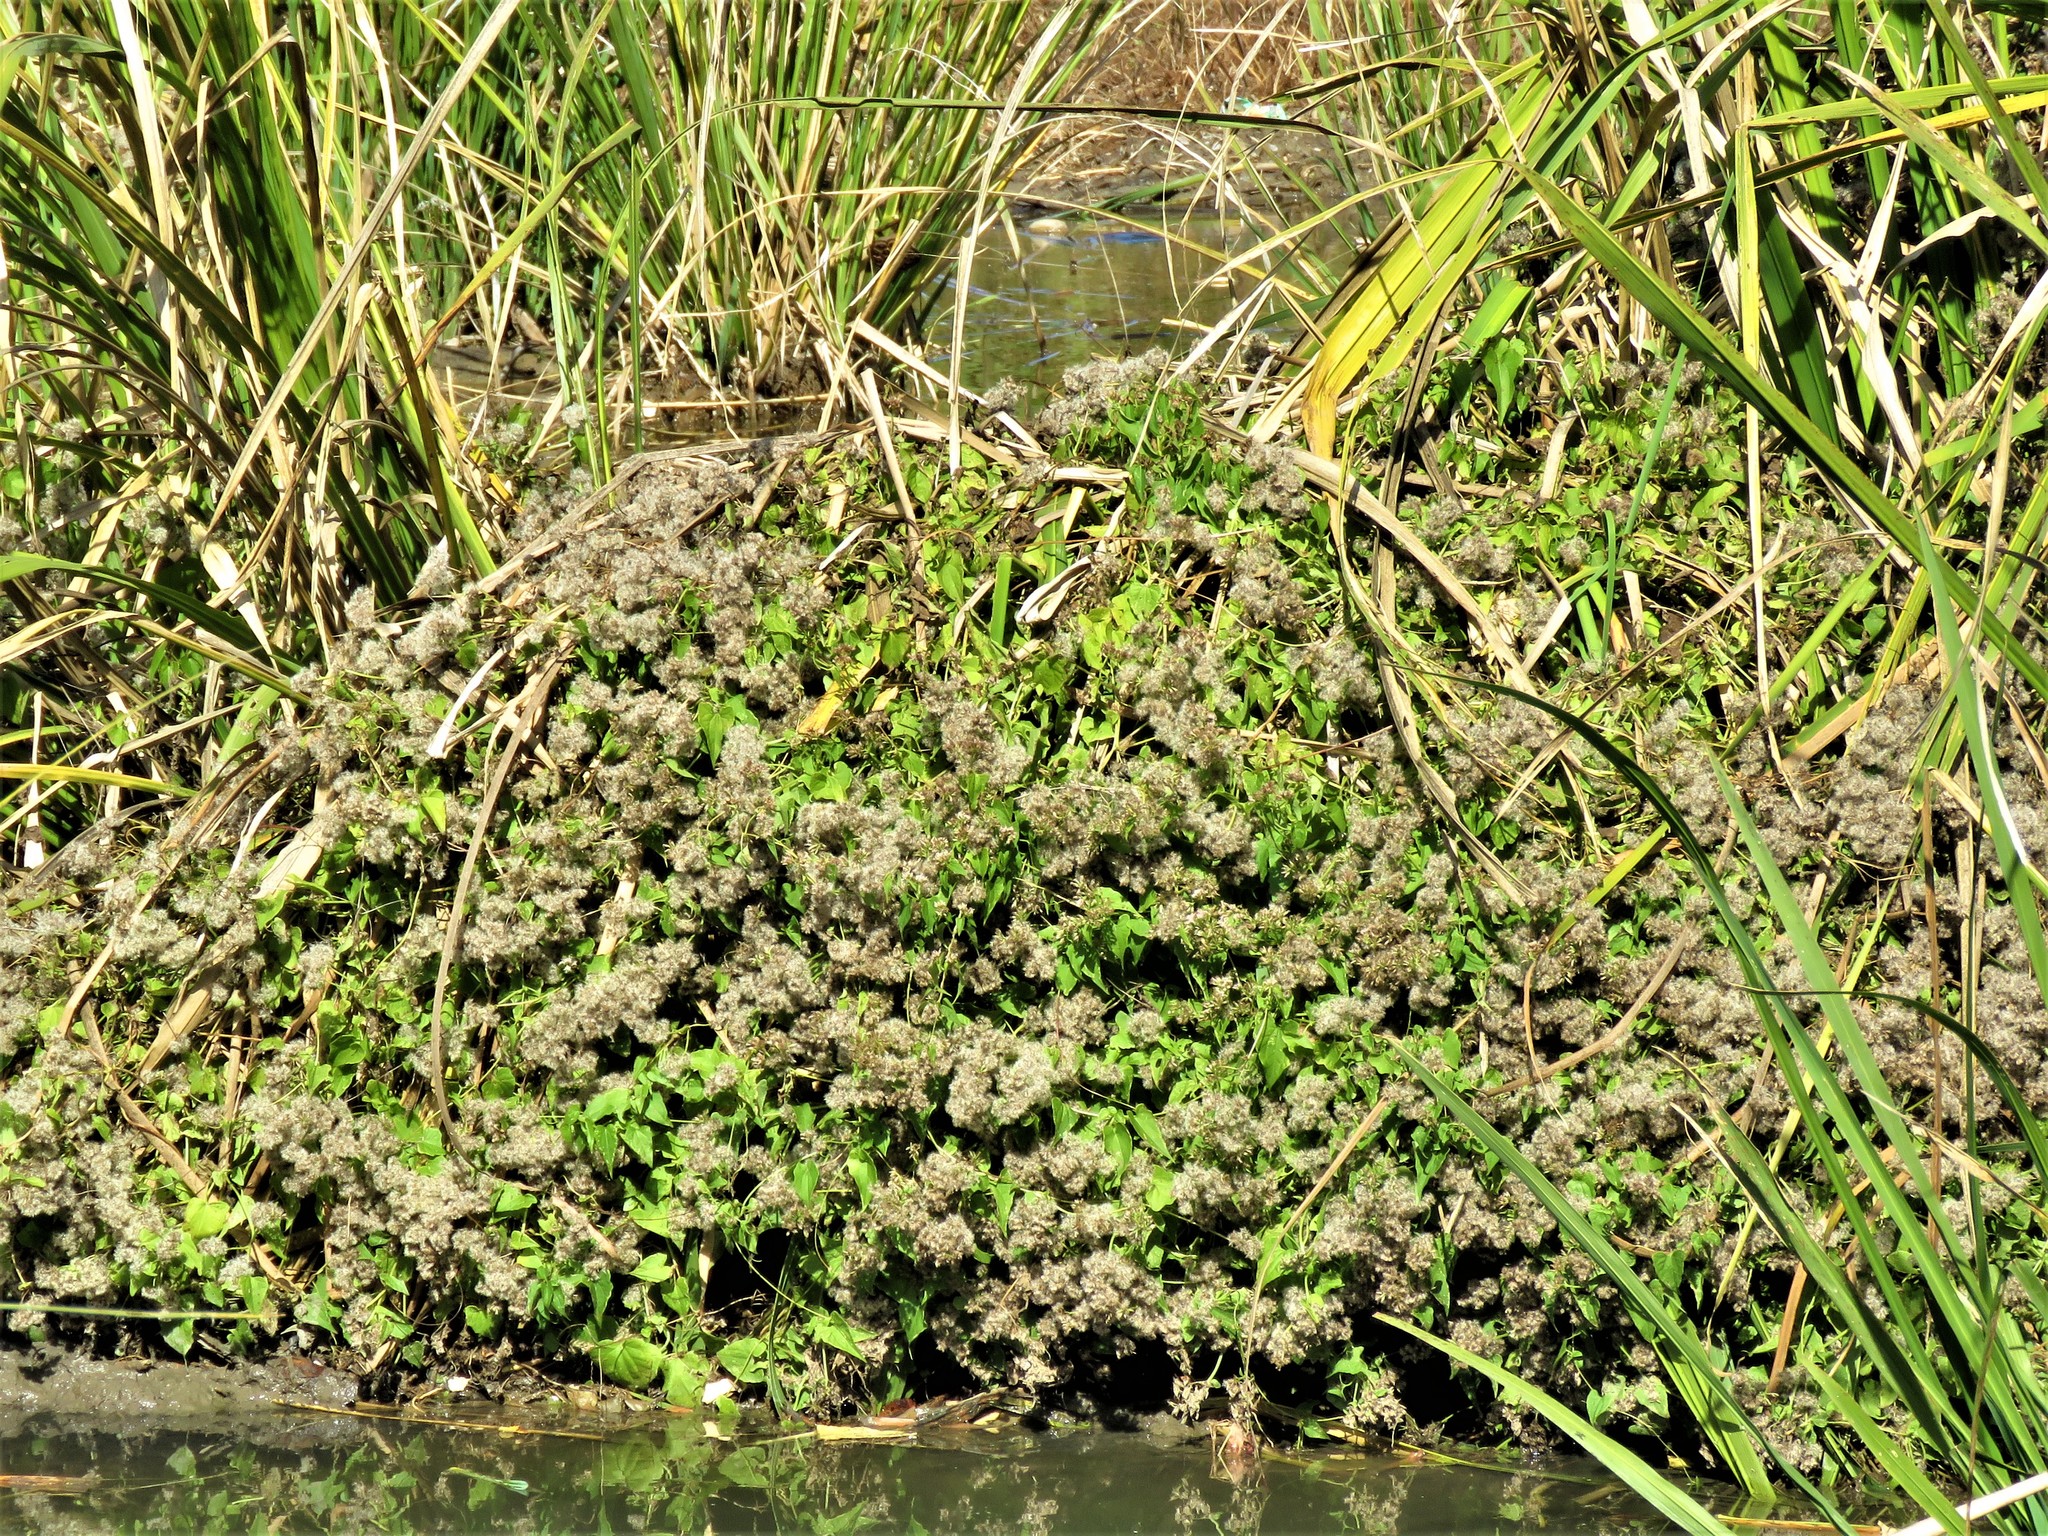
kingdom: Plantae
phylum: Tracheophyta
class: Magnoliopsida
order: Asterales
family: Asteraceae
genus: Mikania
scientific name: Mikania scandens
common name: Climbing hempvine
